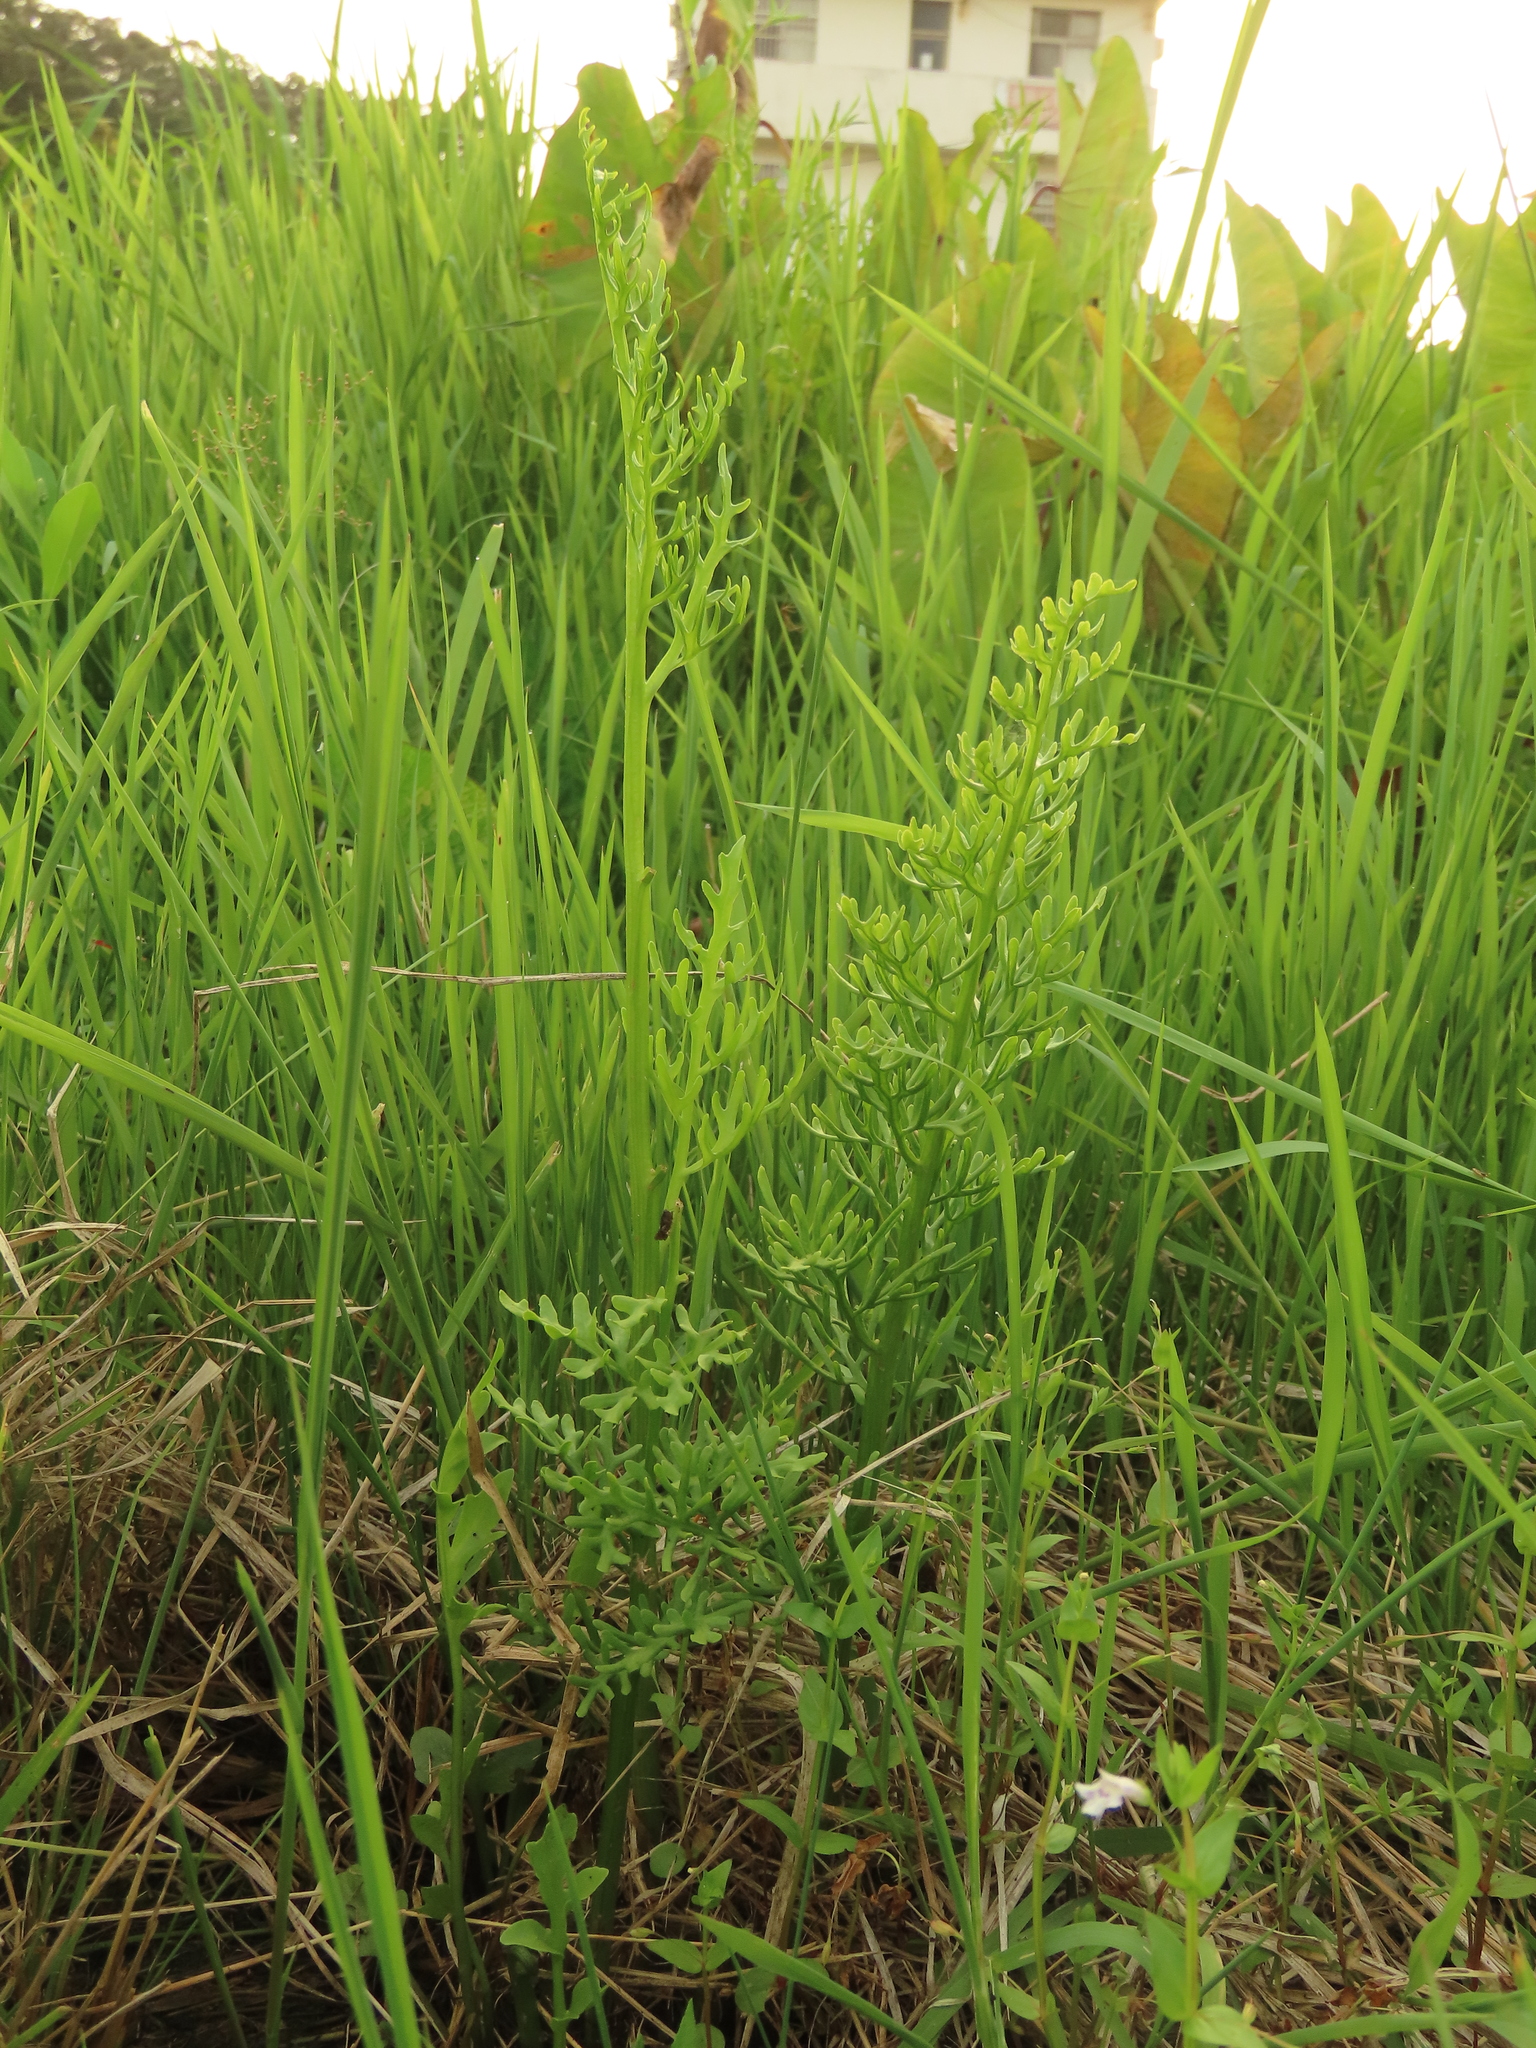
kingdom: Plantae
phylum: Tracheophyta
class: Polypodiopsida
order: Polypodiales
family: Pteridaceae
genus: Ceratopteris
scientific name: Ceratopteris thalictroides
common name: Water fern
